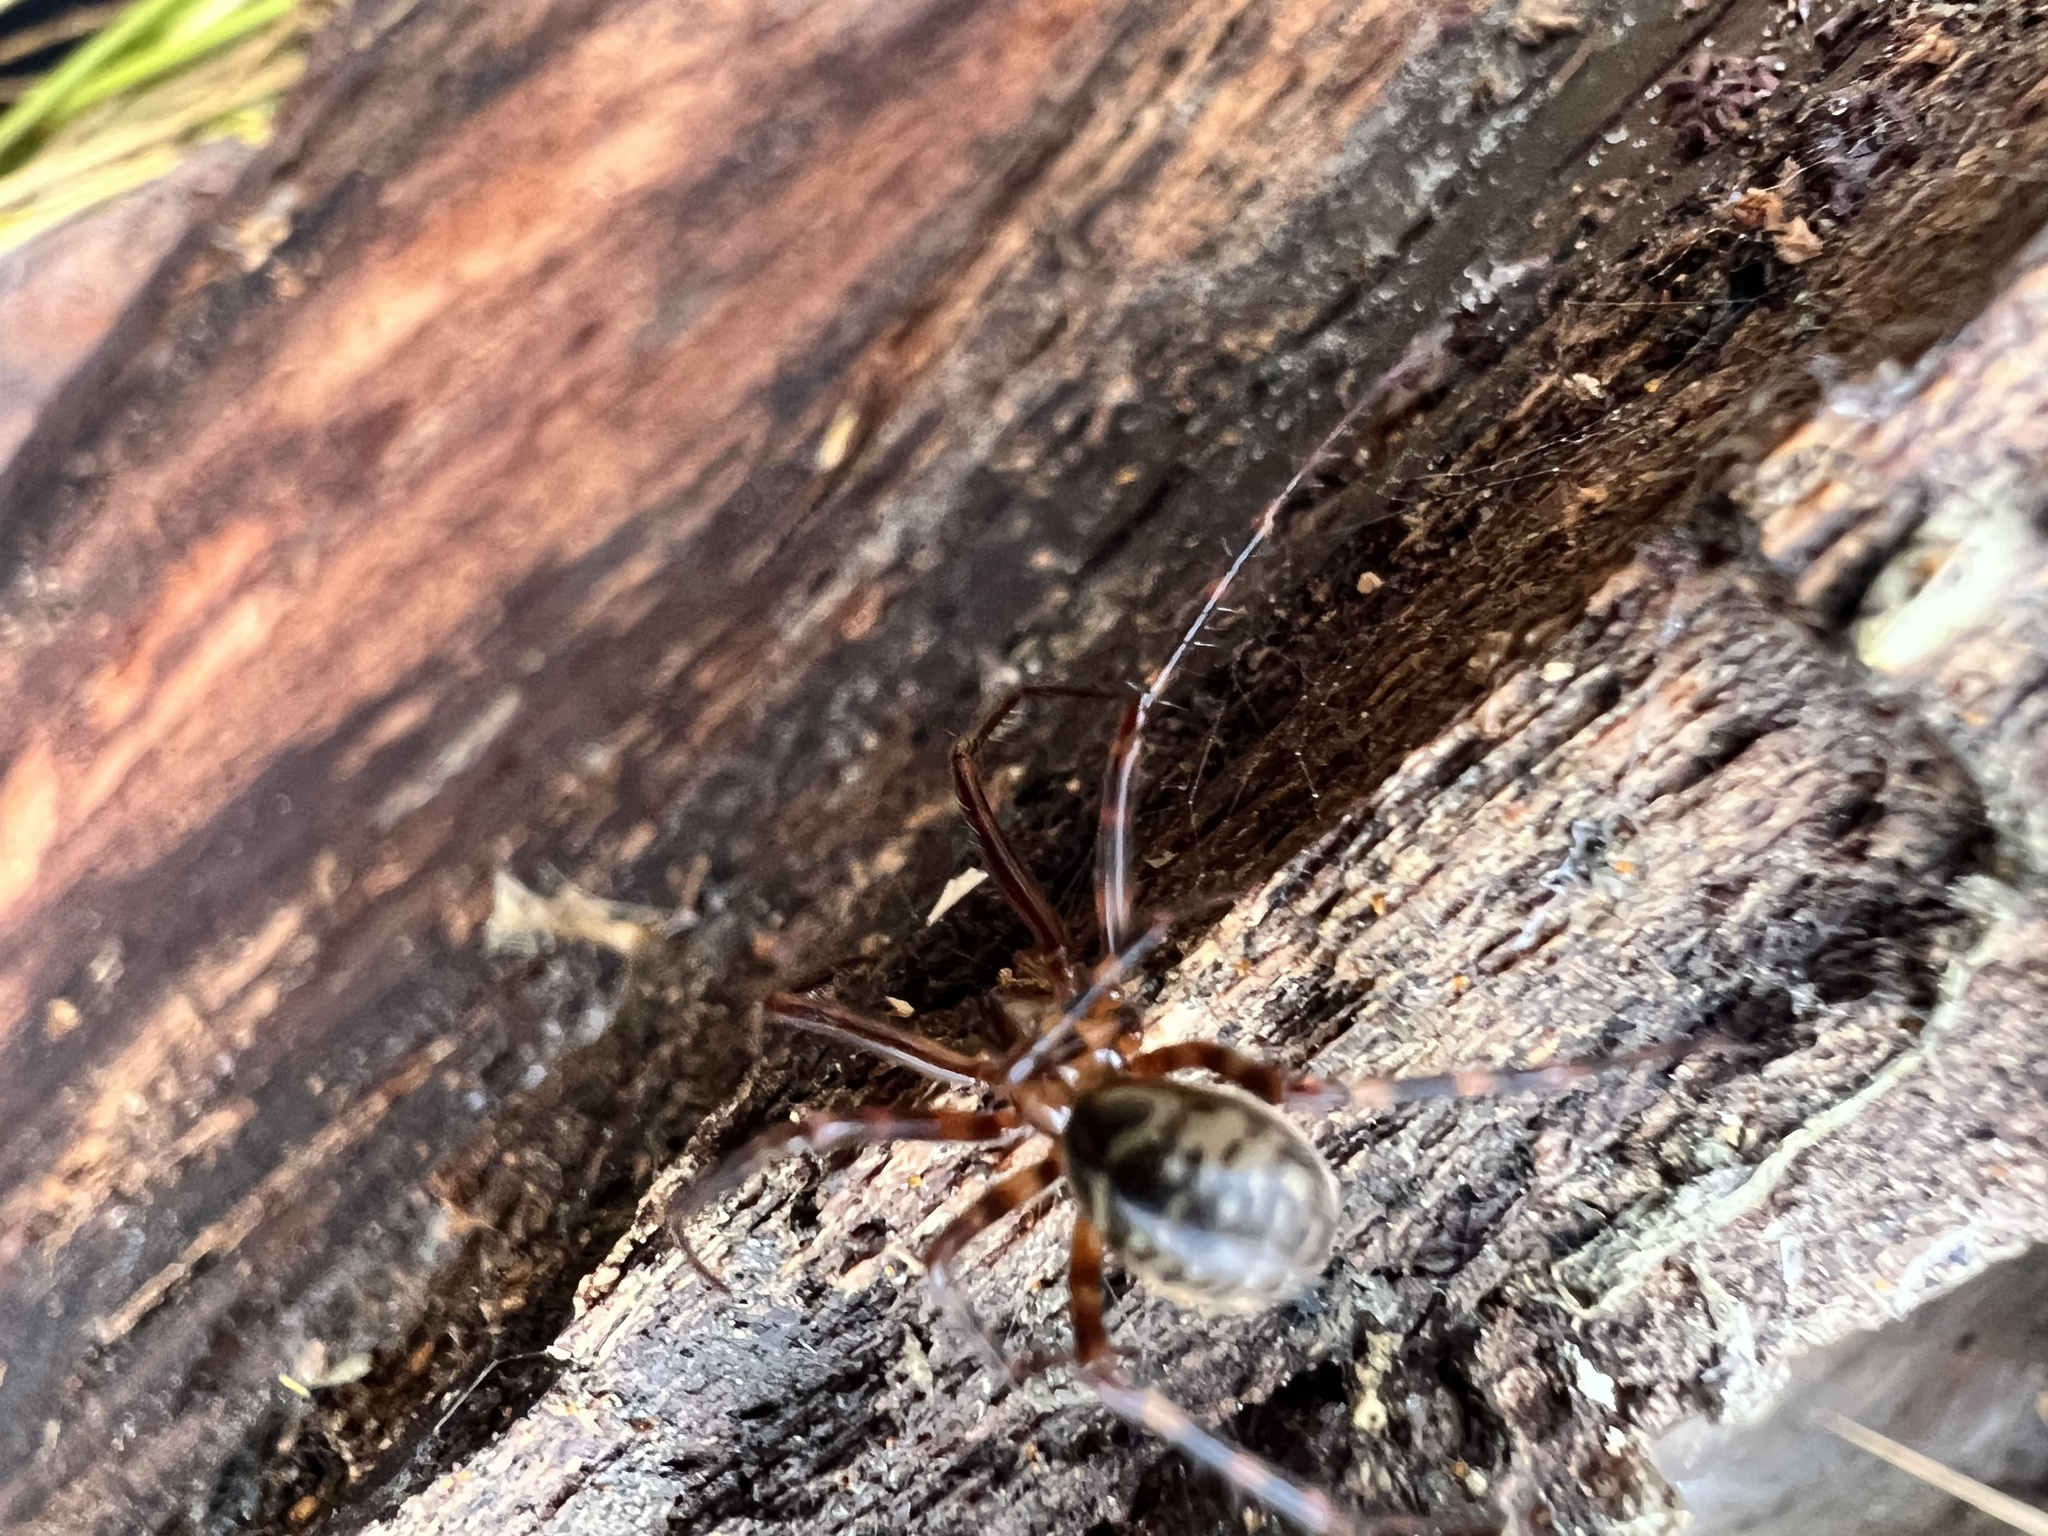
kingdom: Animalia
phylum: Arthropoda
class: Arachnida
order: Araneae
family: Pimoidae
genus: Pimoa
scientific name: Pimoa altioculata
